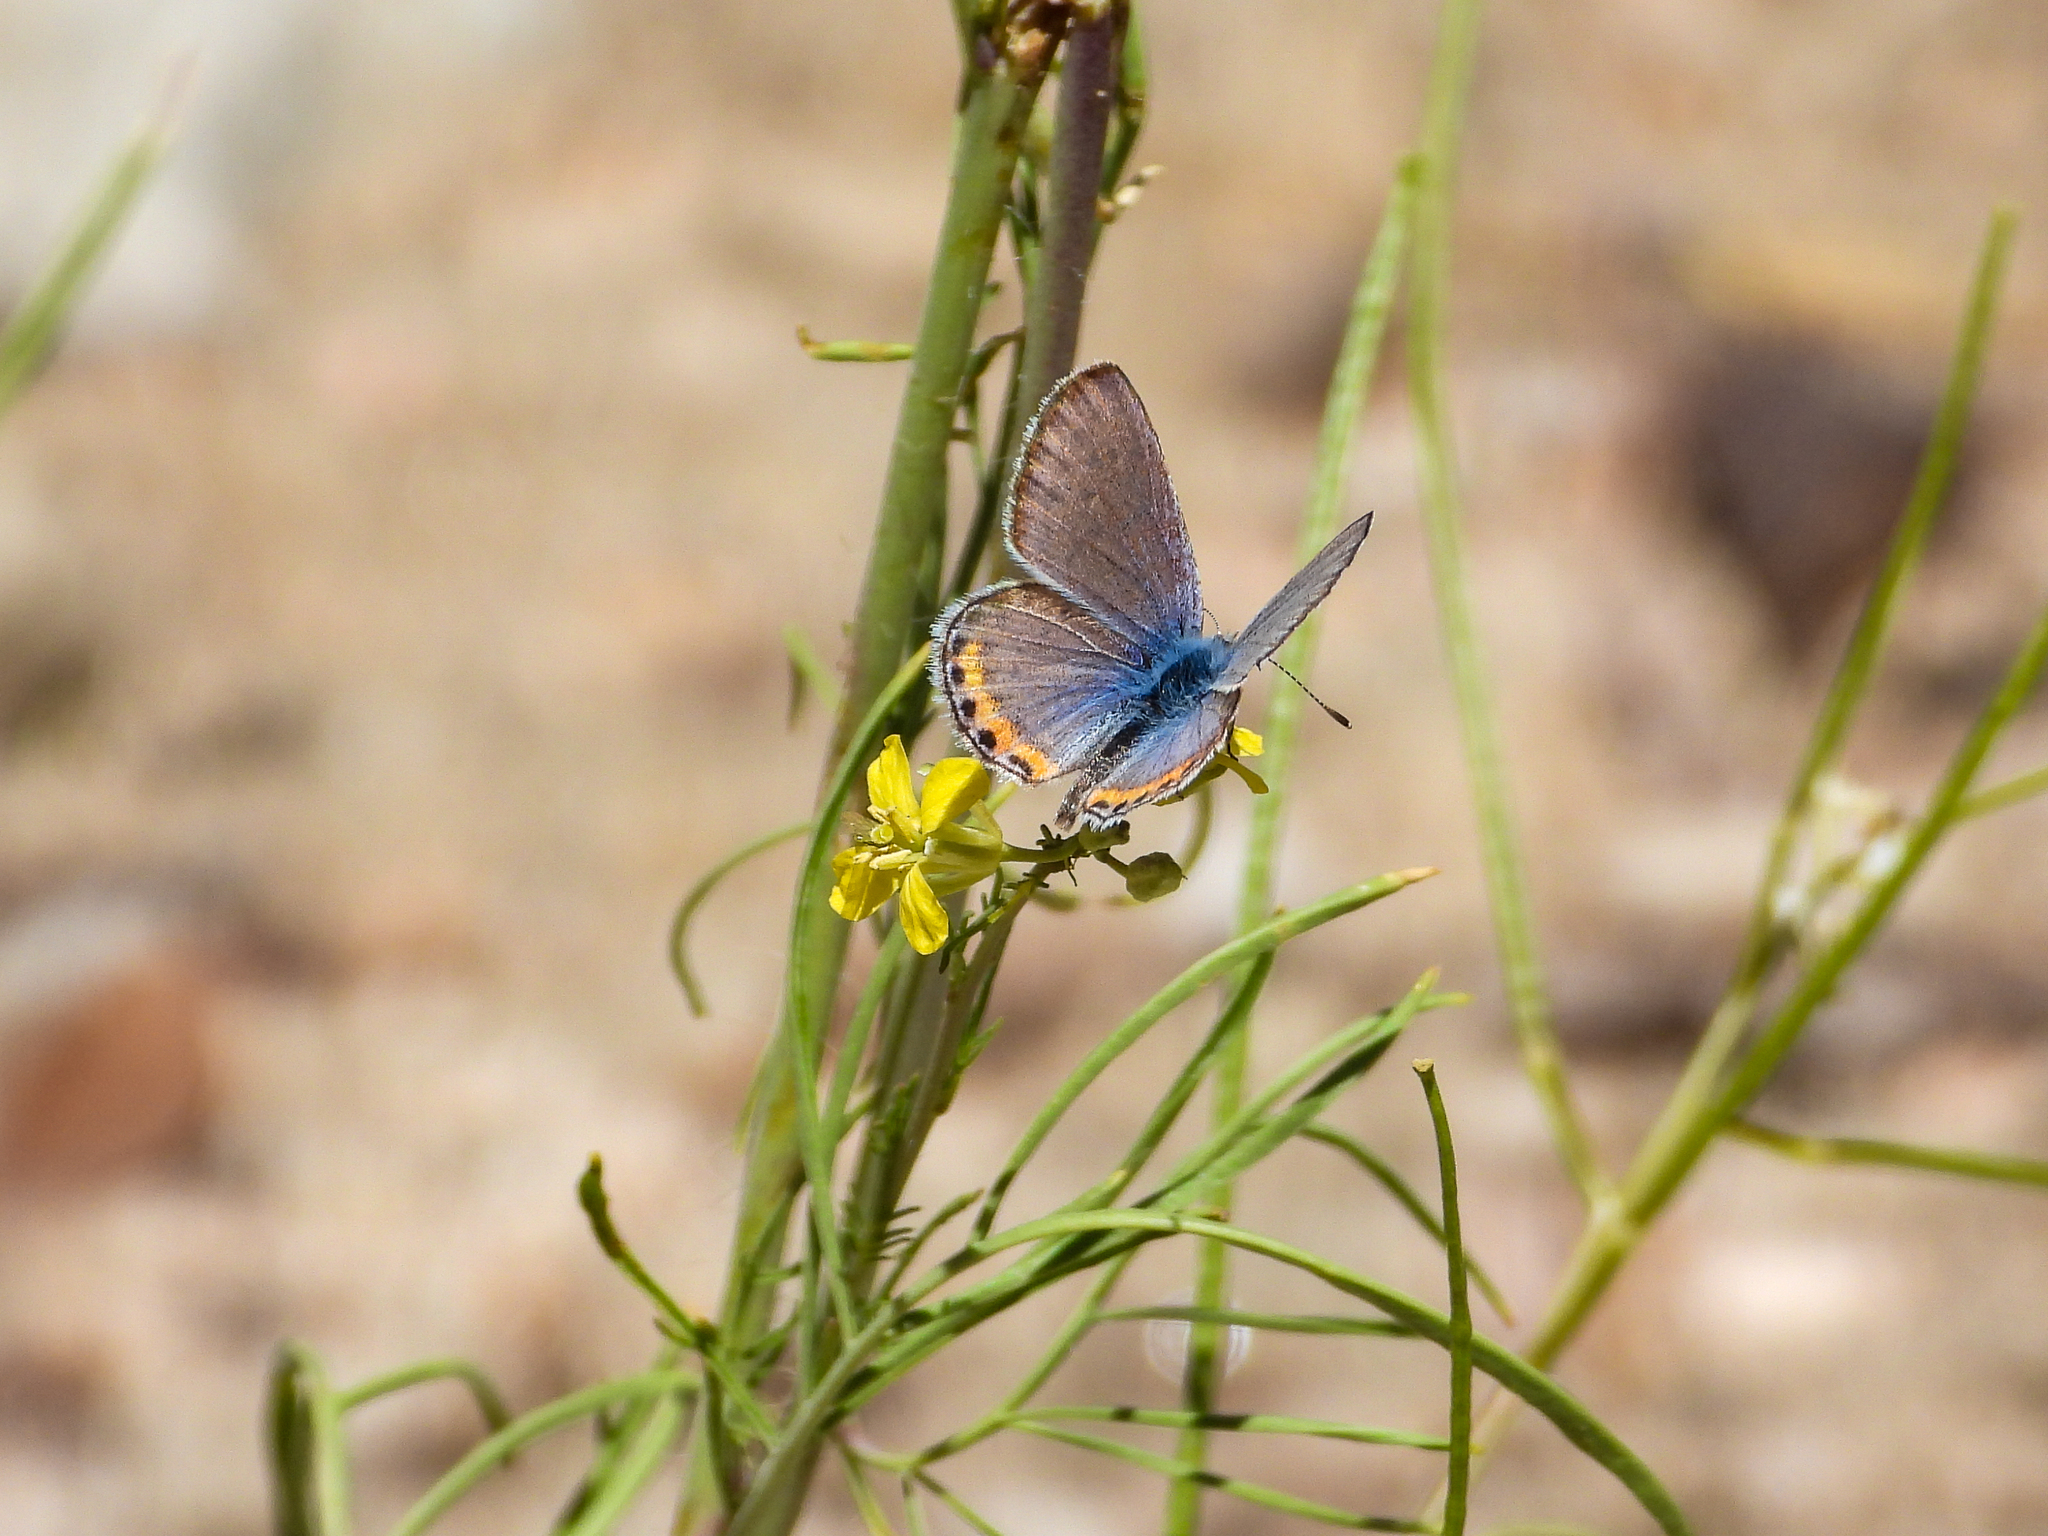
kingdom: Animalia
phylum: Arthropoda
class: Insecta
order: Lepidoptera
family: Lycaenidae
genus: Icaricia
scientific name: Icaricia acmon
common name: Acmon blue
